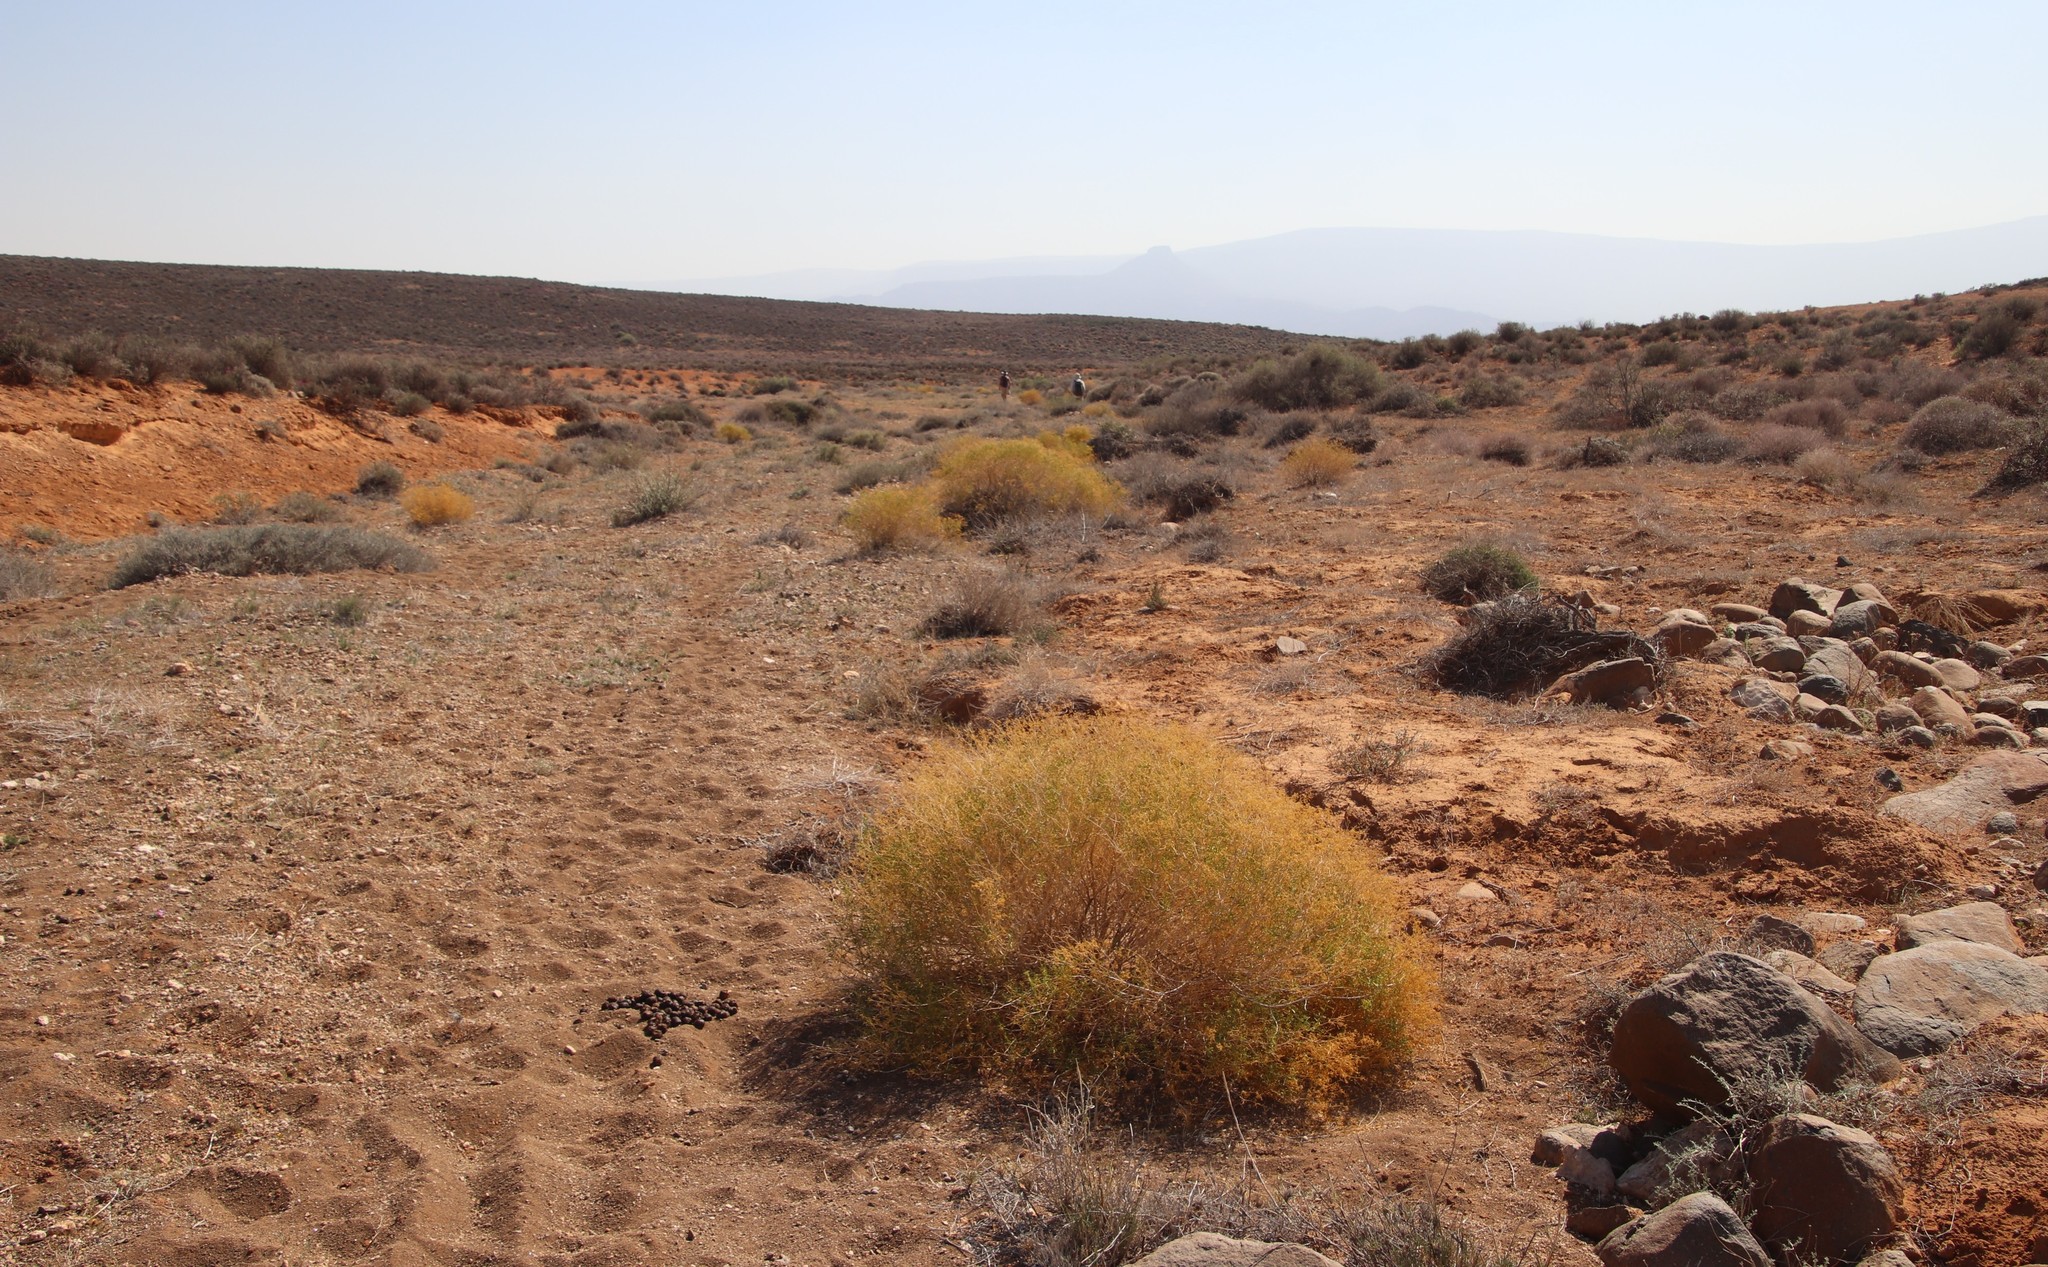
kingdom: Plantae
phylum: Tracheophyta
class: Magnoliopsida
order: Caryophyllales
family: Aizoaceae
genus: Aizoon
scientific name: Aizoon africanum
